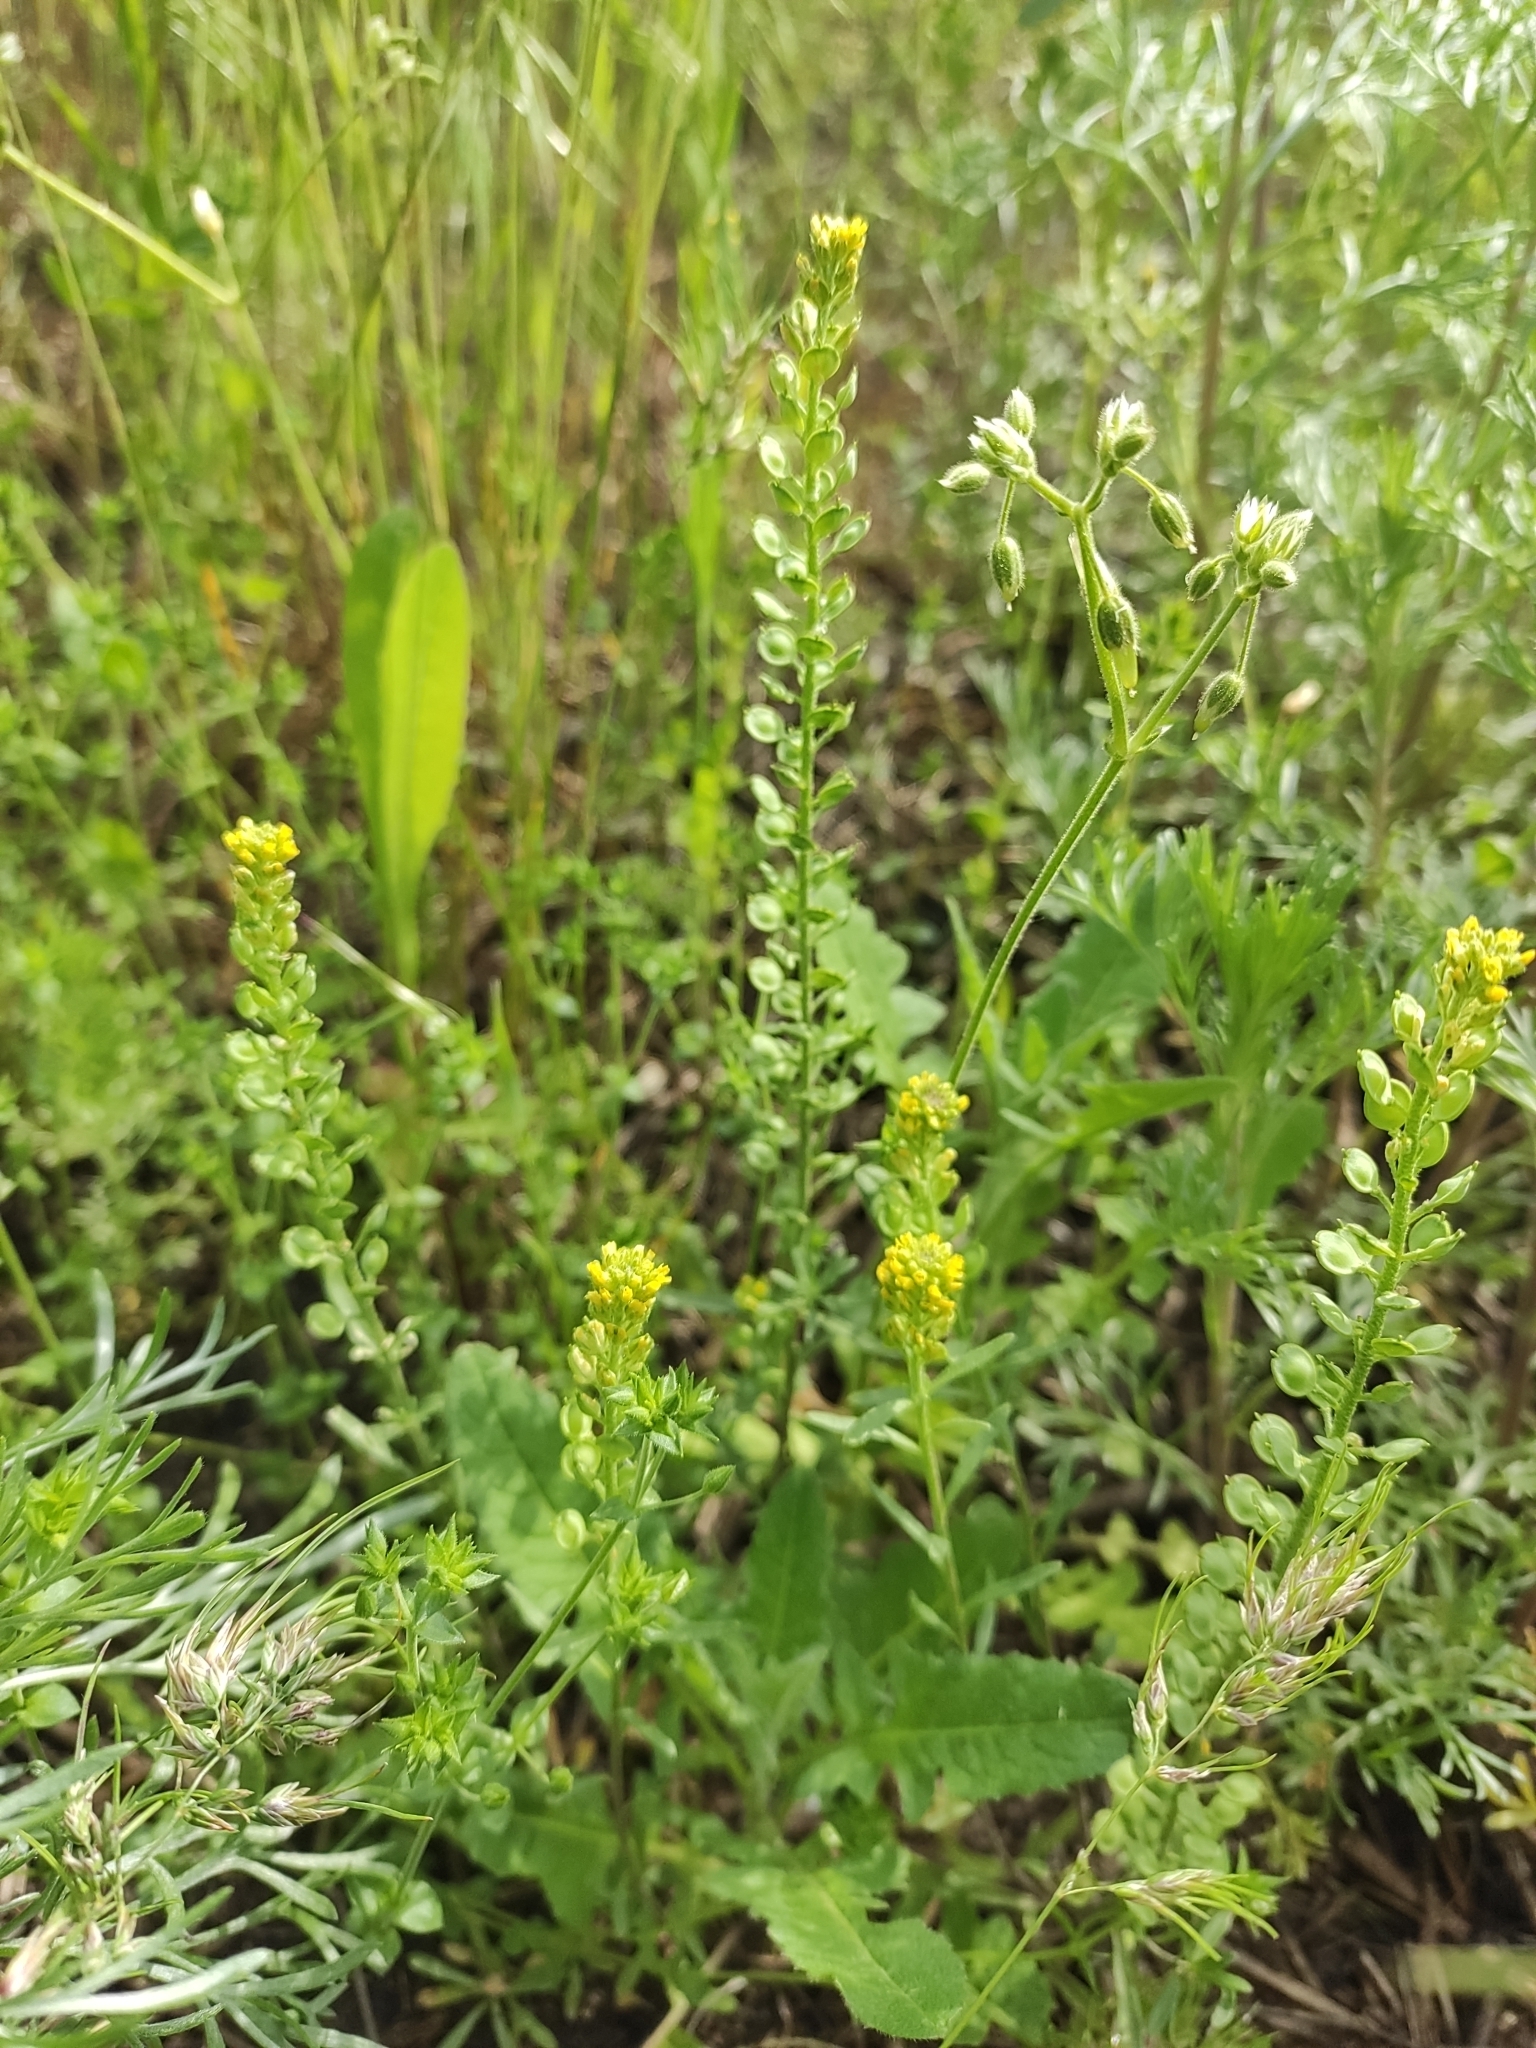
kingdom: Plantae
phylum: Tracheophyta
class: Magnoliopsida
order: Brassicales
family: Brassicaceae
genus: Alyssum
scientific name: Alyssum turkestanicum
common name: Desert alyssum
